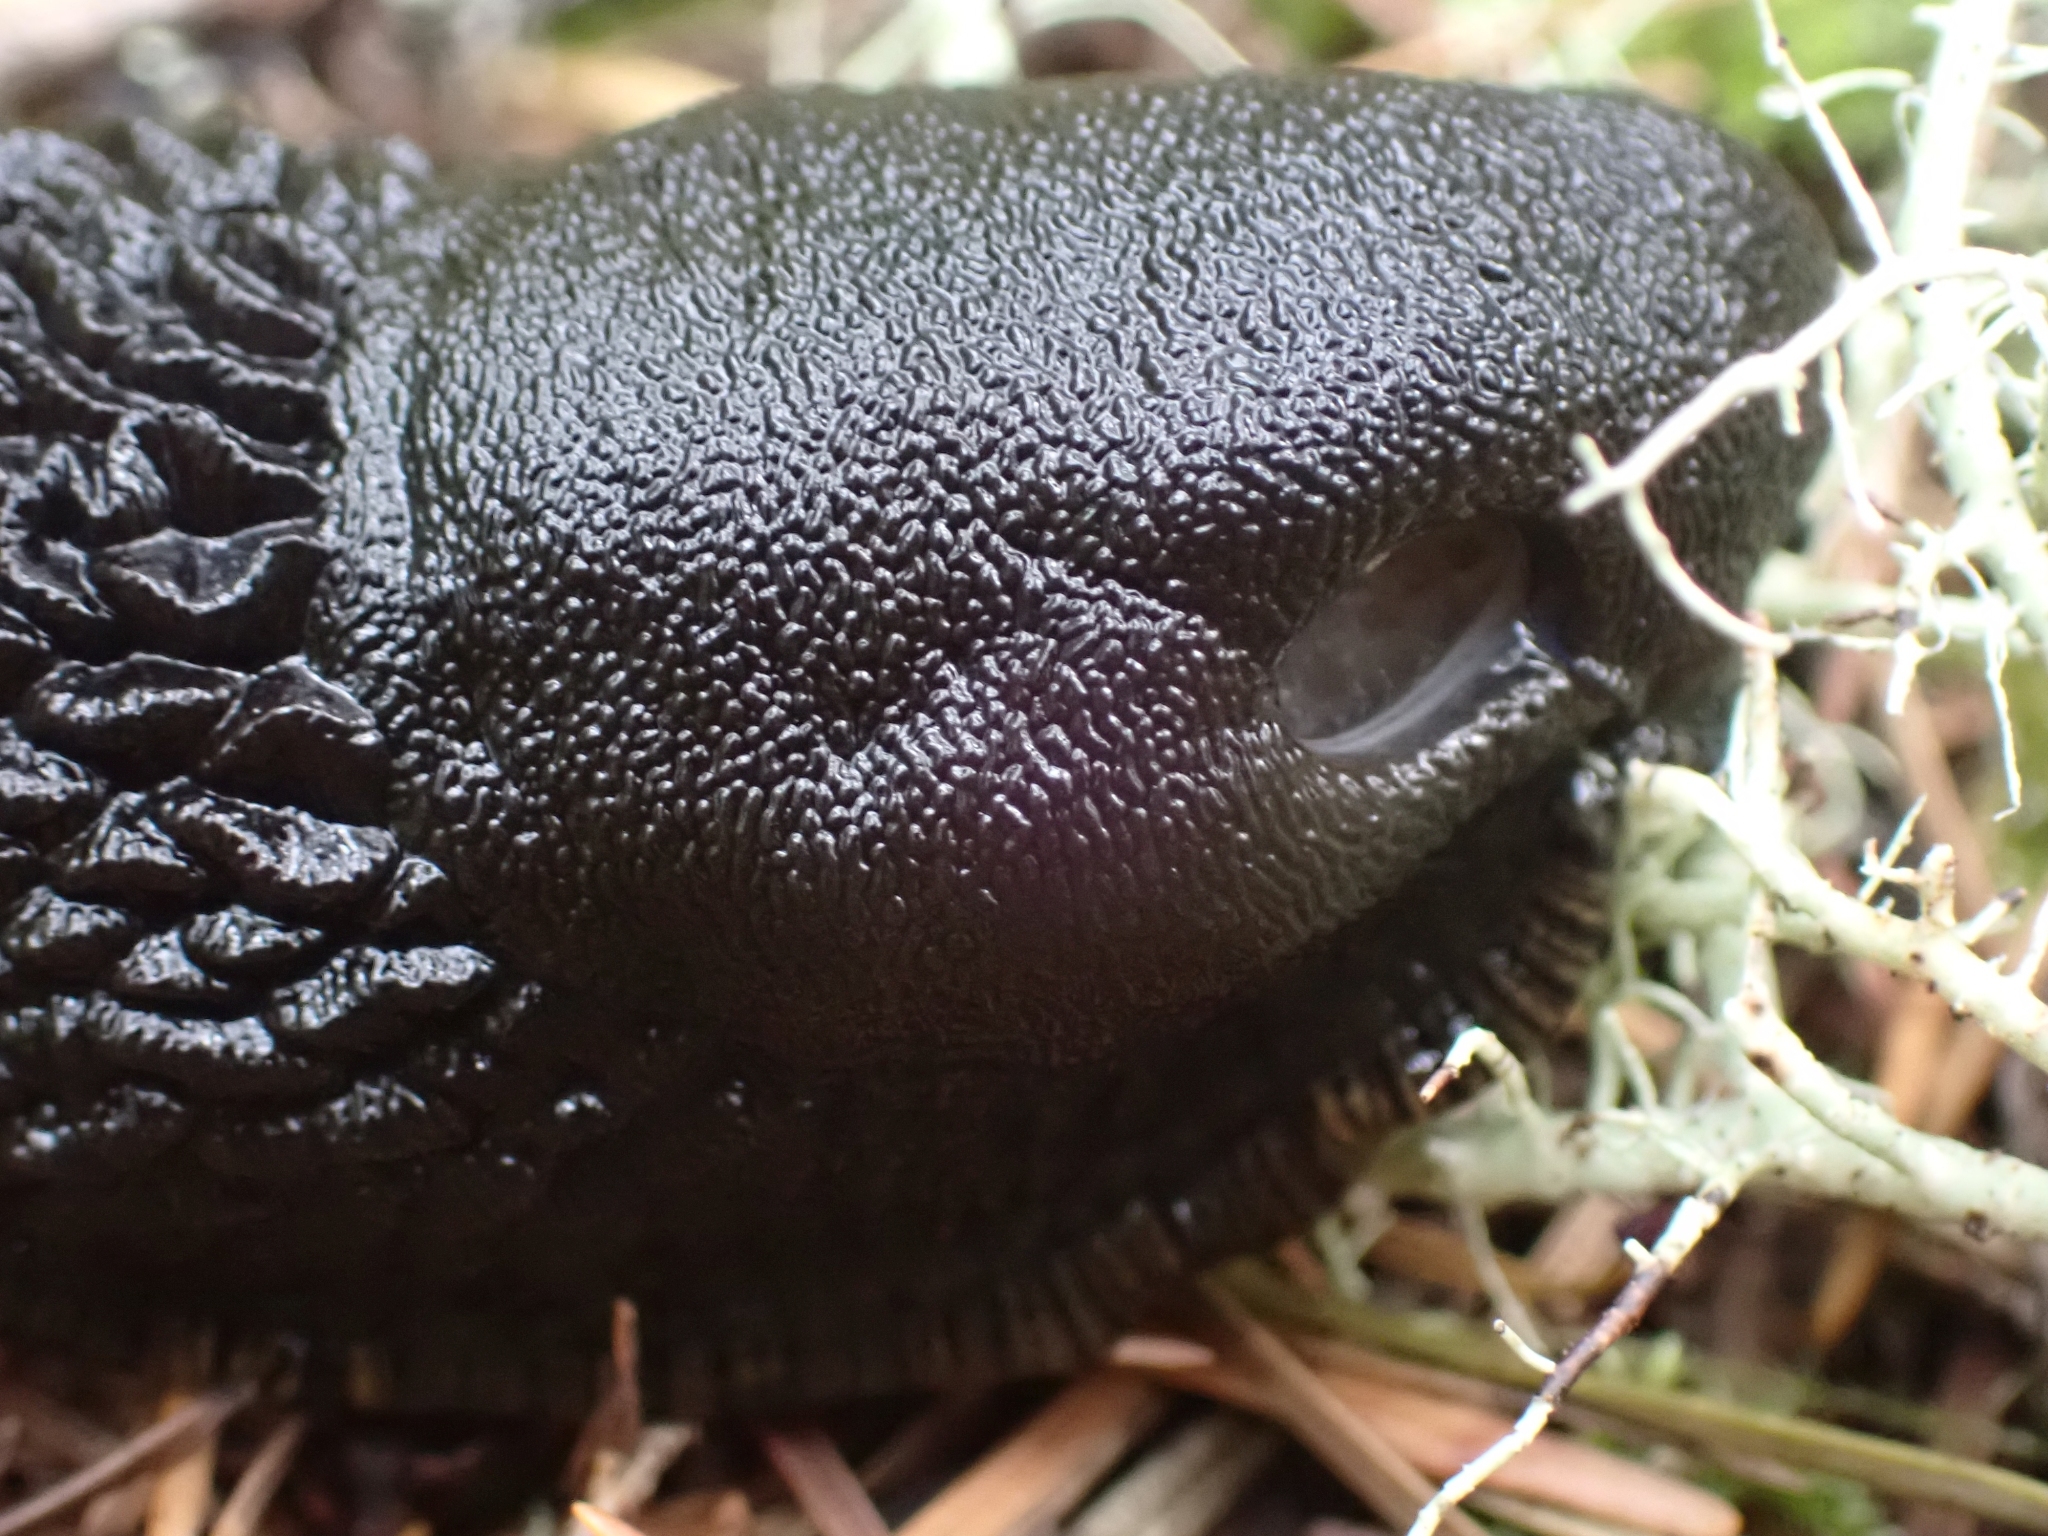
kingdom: Animalia
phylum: Mollusca
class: Gastropoda
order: Stylommatophora
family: Arionidae
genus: Arion
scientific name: Arion
